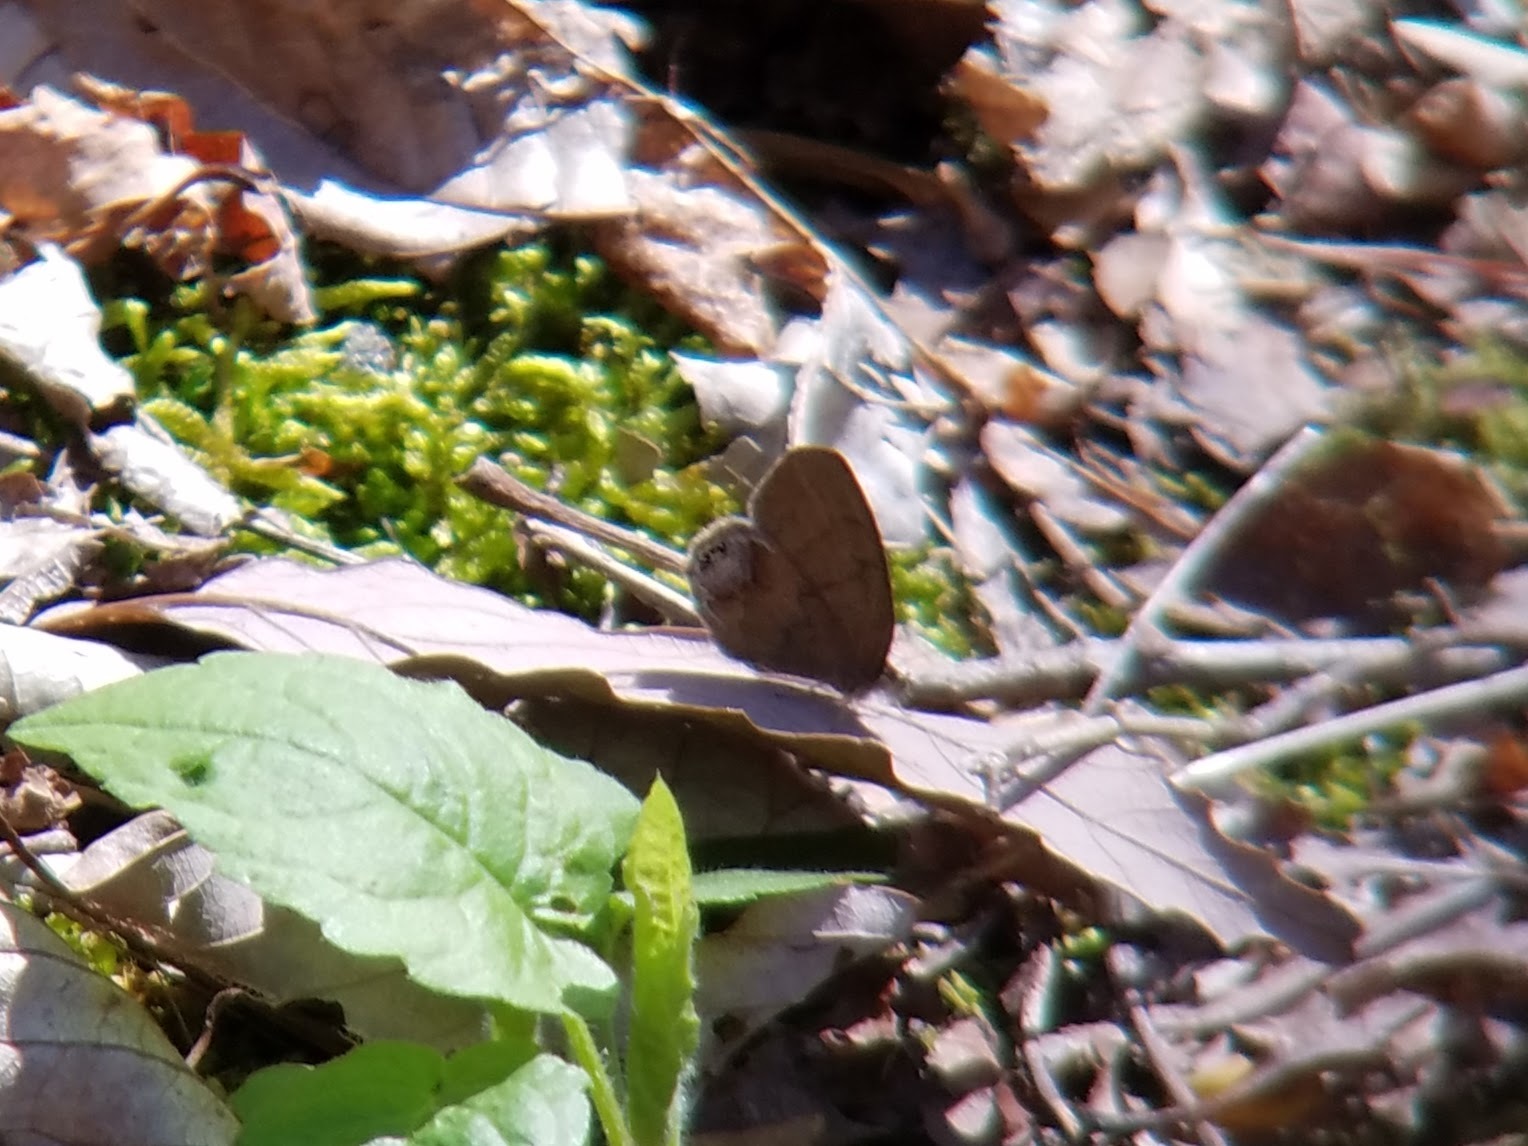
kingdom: Animalia
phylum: Arthropoda
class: Insecta
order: Lepidoptera
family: Nymphalidae
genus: Euptychia
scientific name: Euptychia cornelius
